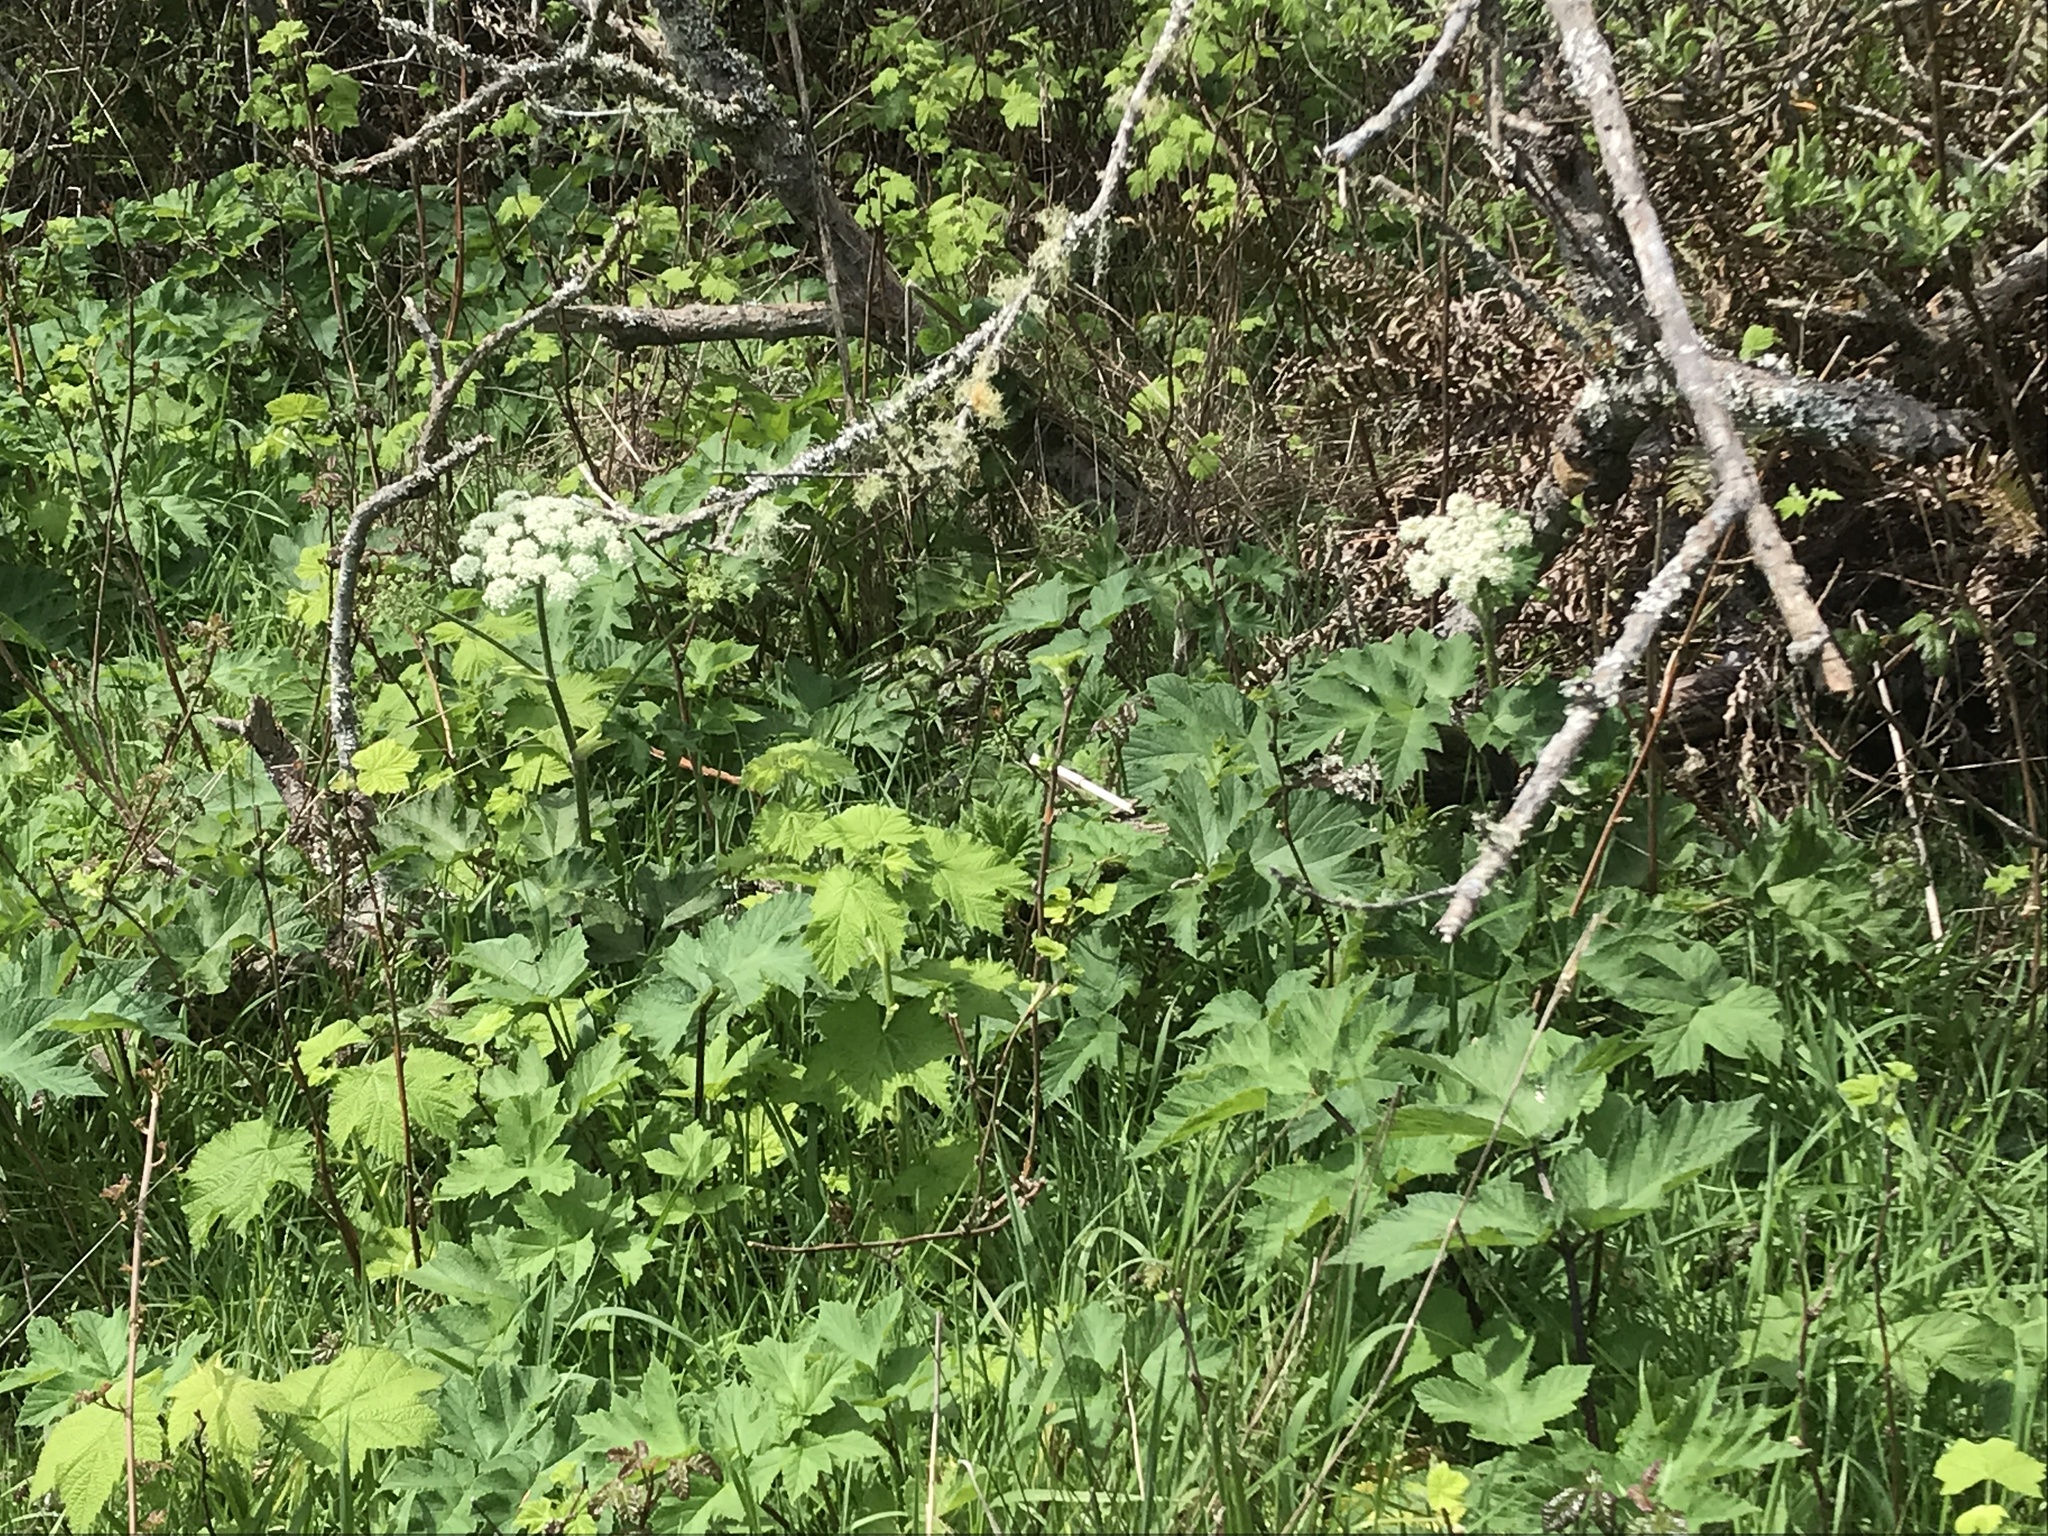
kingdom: Plantae
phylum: Tracheophyta
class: Magnoliopsida
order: Apiales
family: Apiaceae
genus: Heracleum
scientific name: Heracleum maximum
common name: American cow parsnip
